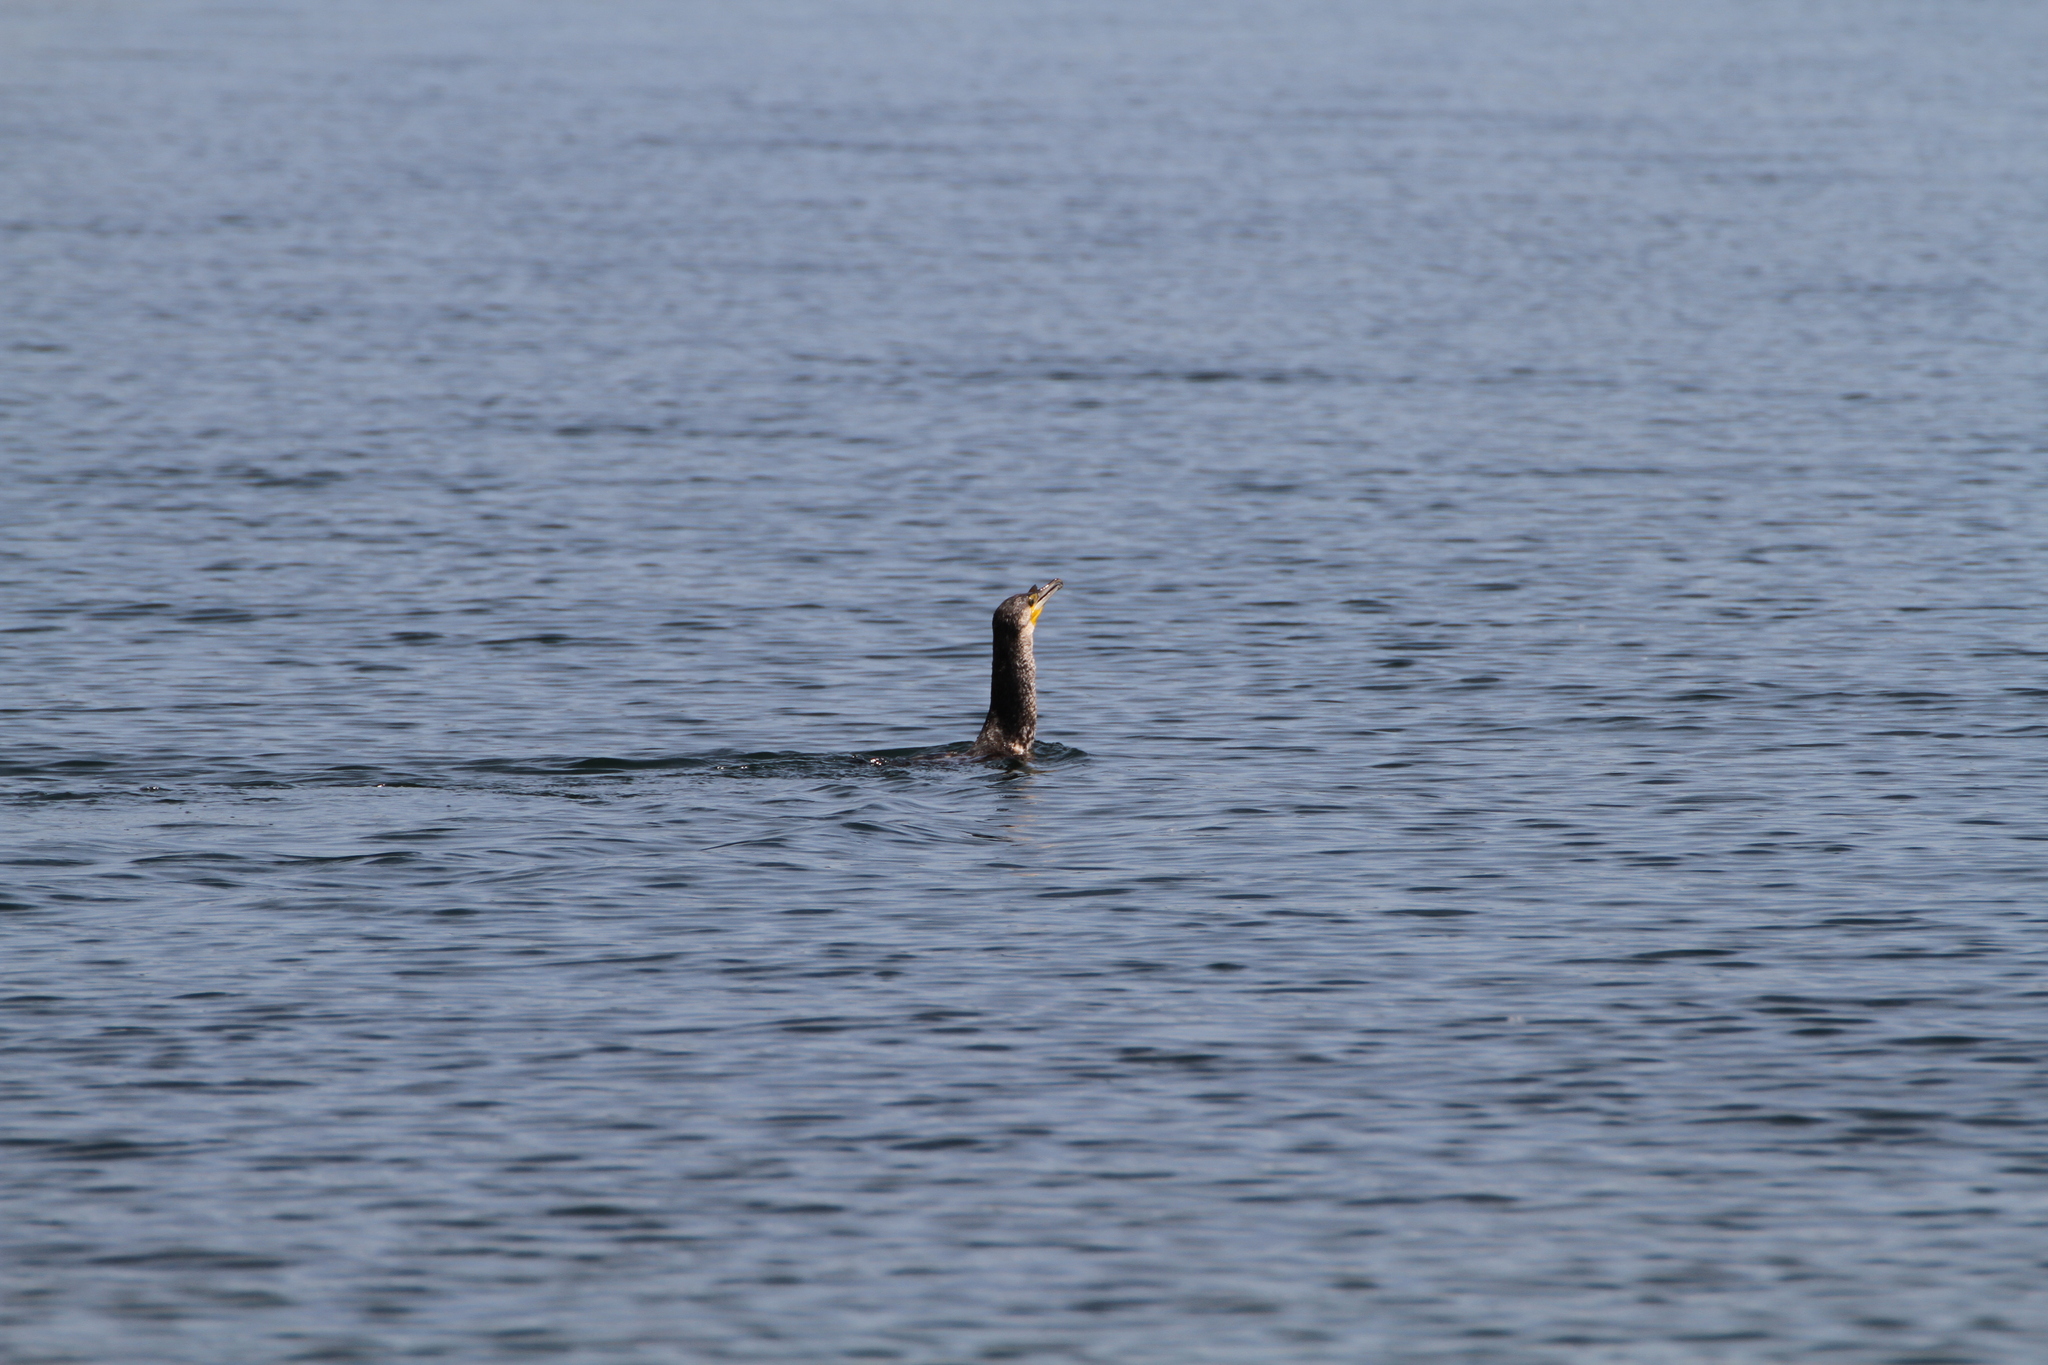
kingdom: Animalia
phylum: Chordata
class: Aves
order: Suliformes
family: Phalacrocoracidae
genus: Phalacrocorax
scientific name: Phalacrocorax carbo
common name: Great cormorant
